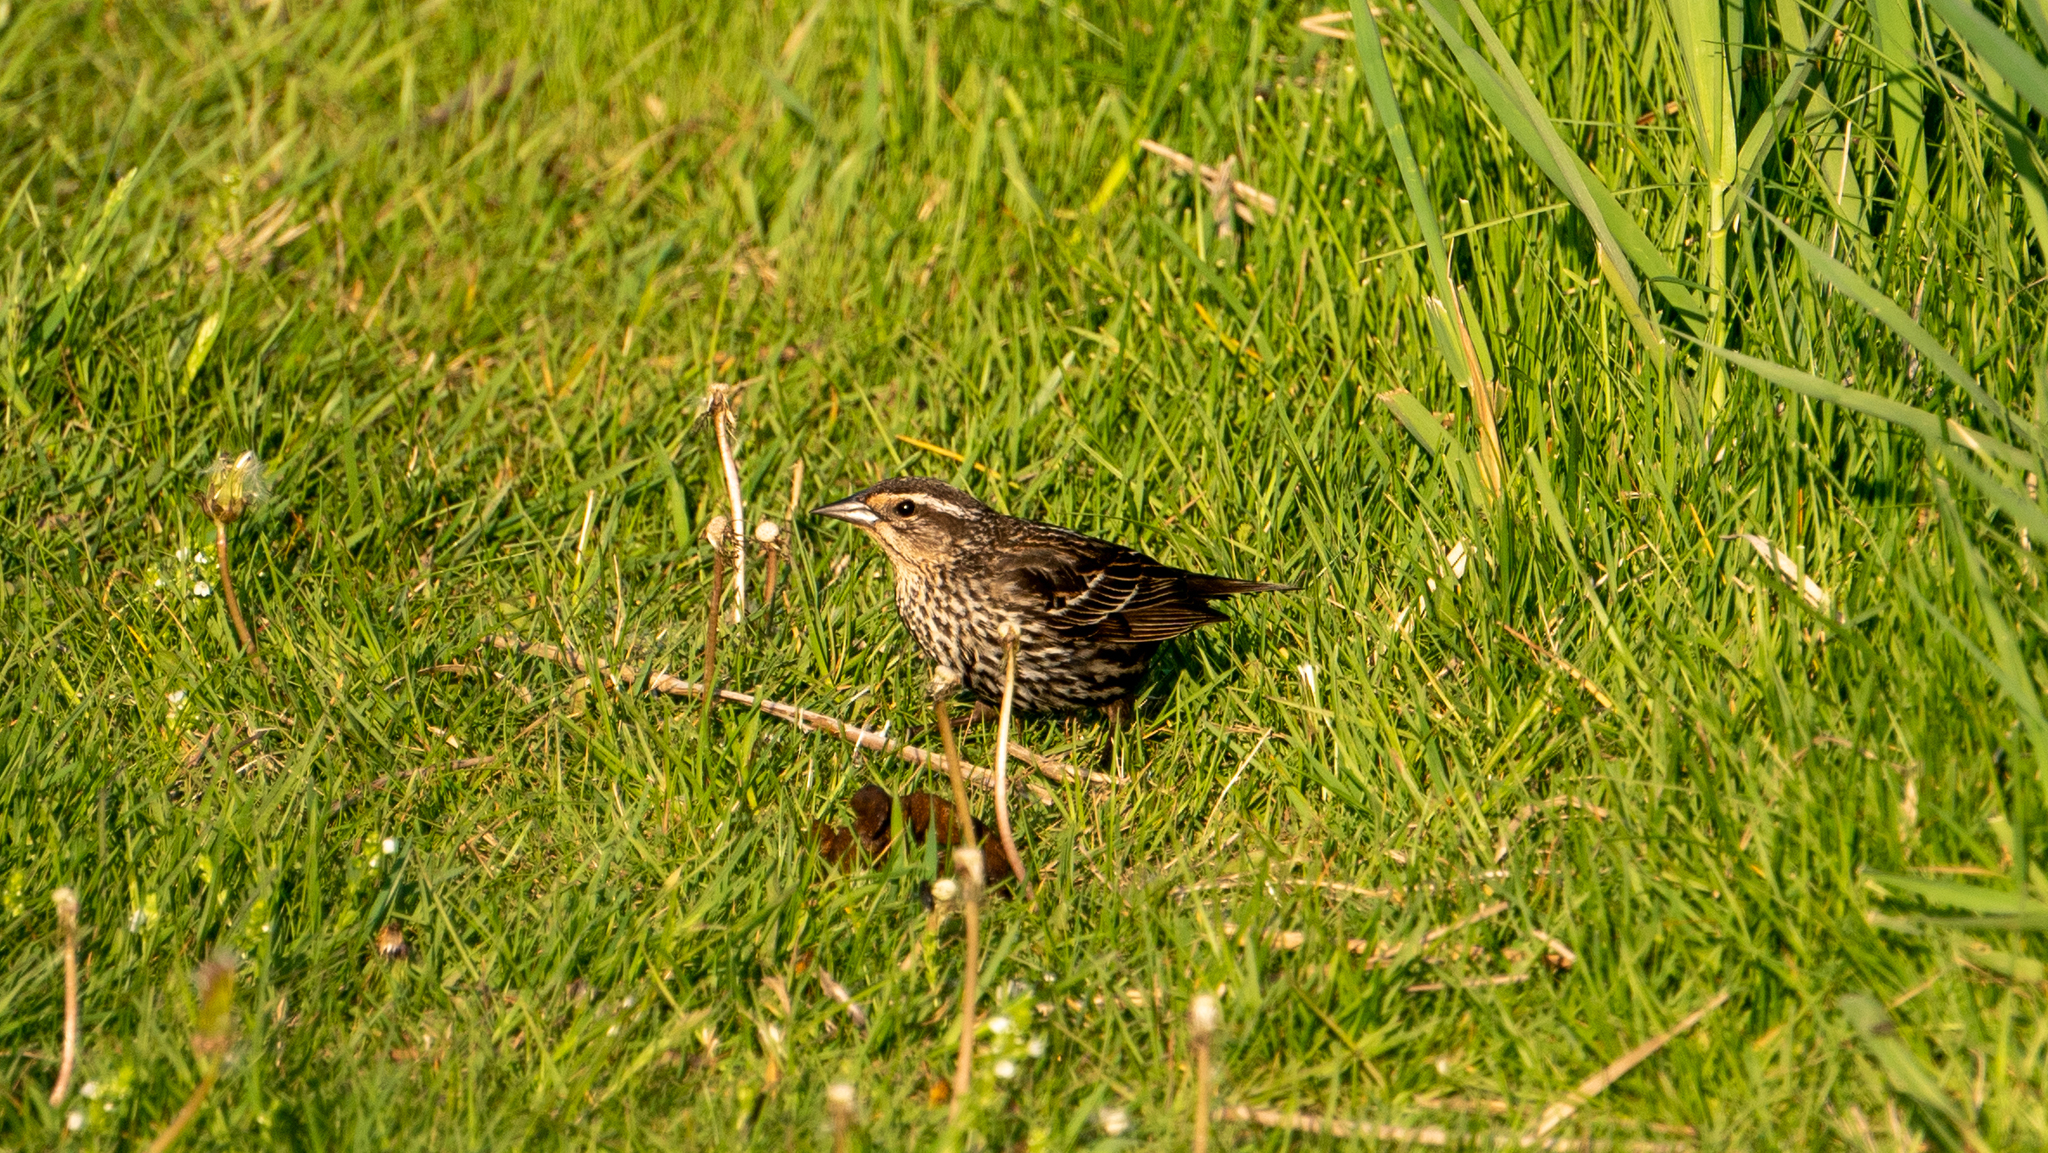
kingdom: Animalia
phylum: Chordata
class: Aves
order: Passeriformes
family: Icteridae
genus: Agelaius
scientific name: Agelaius phoeniceus
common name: Red-winged blackbird
